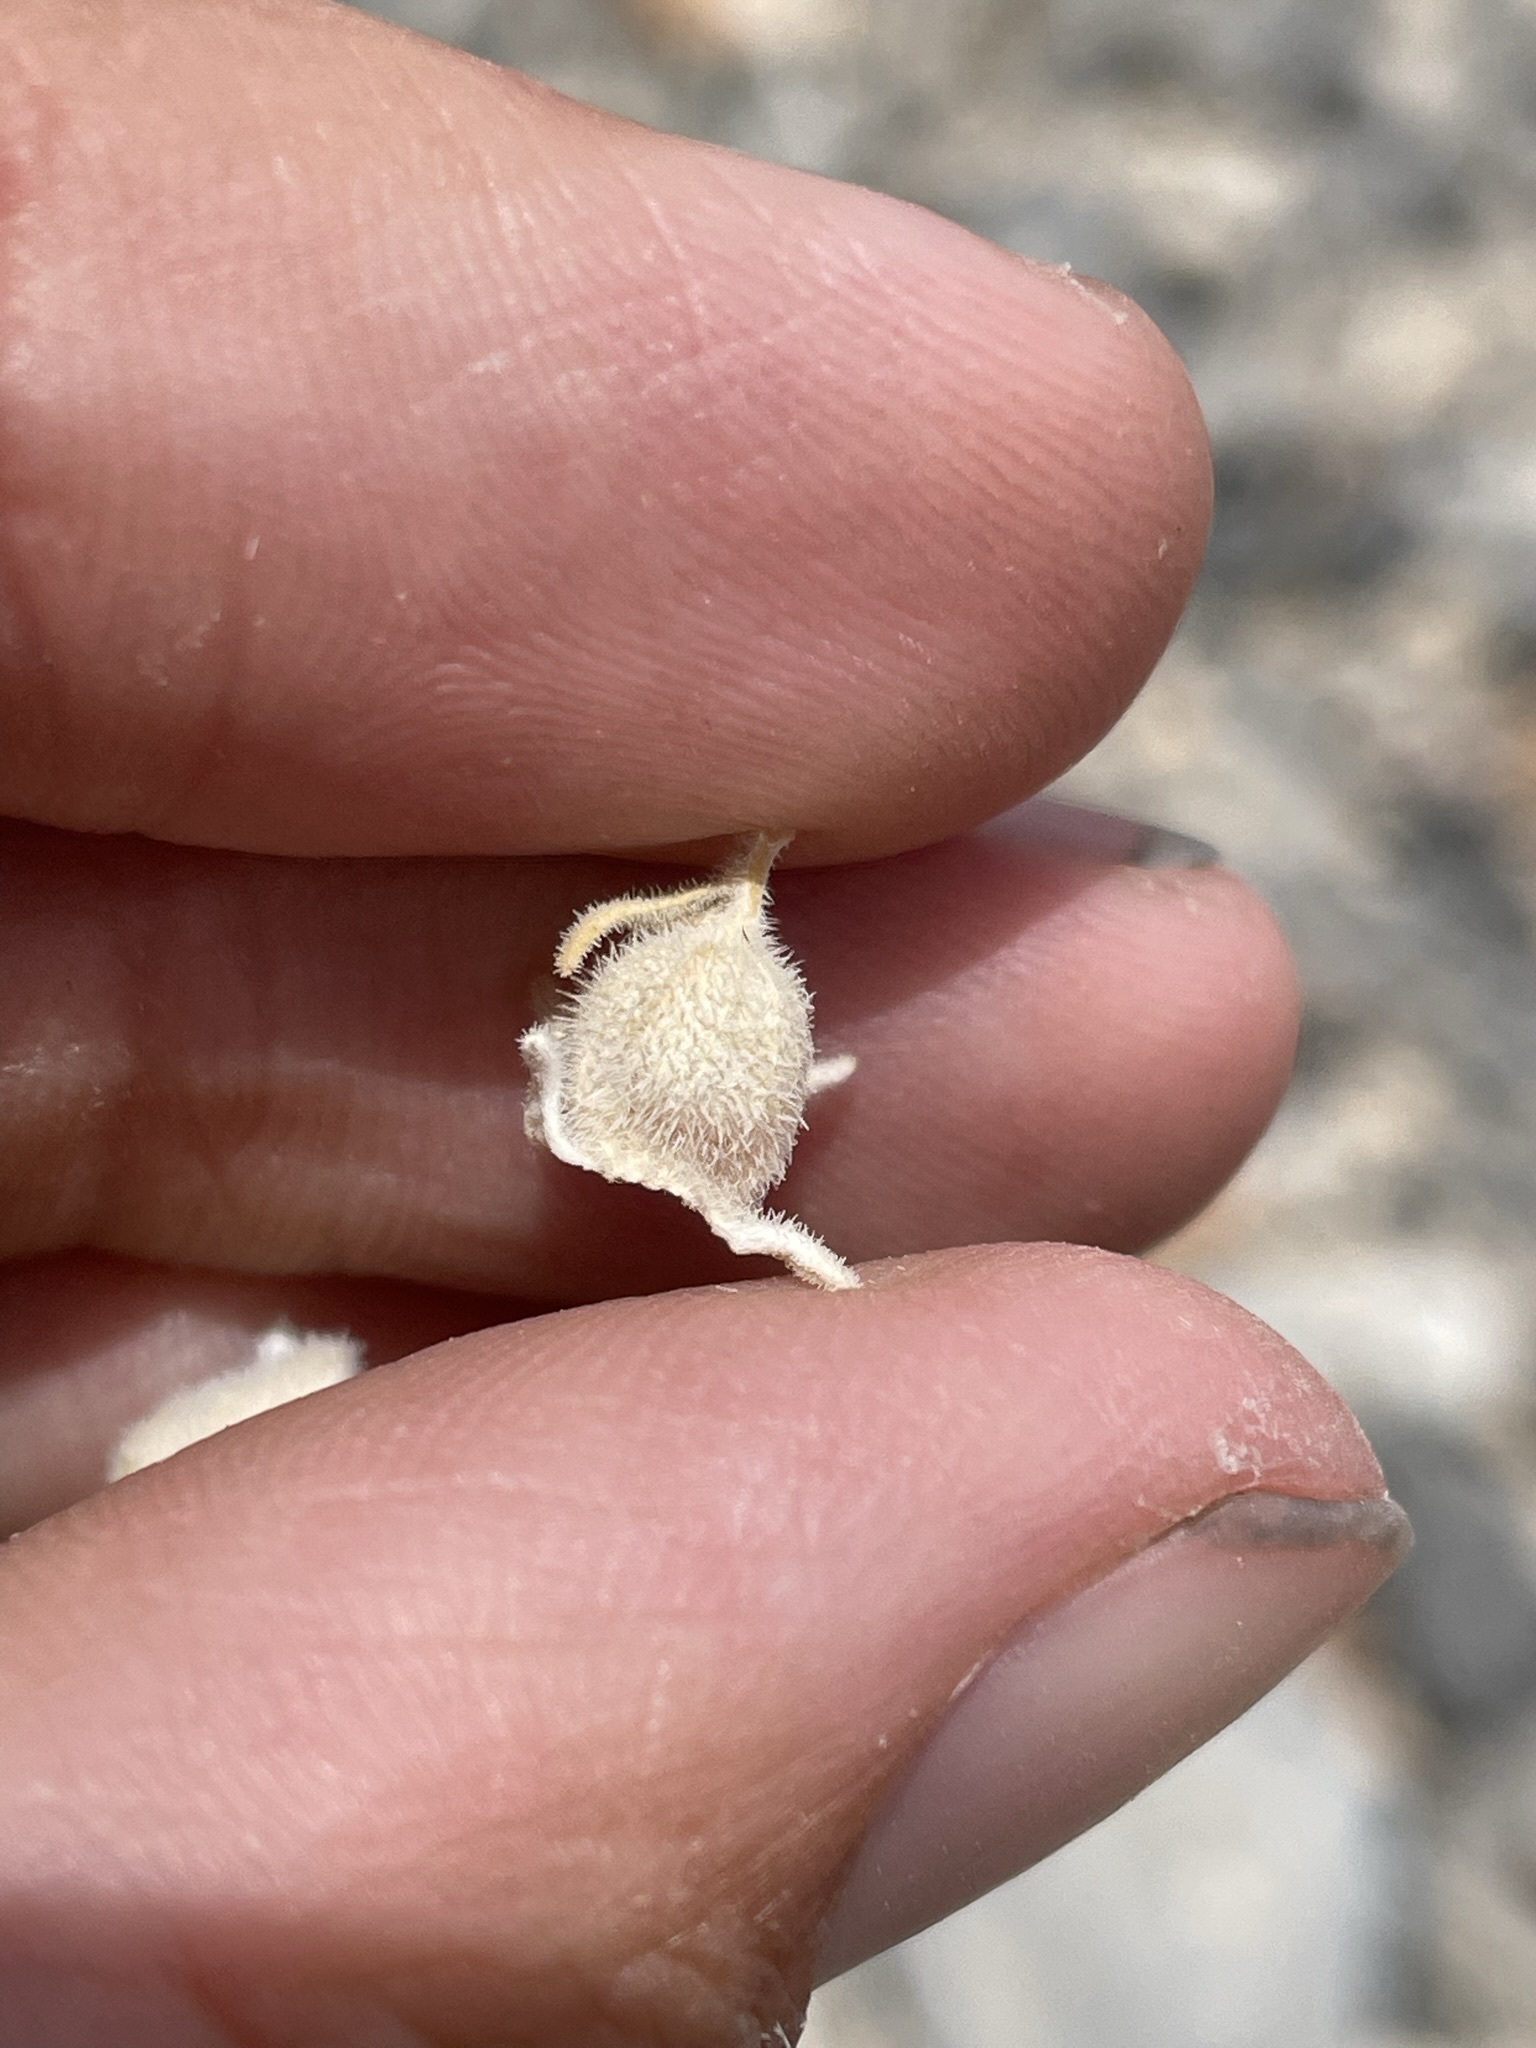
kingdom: Plantae
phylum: Tracheophyta
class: Magnoliopsida
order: Cornales
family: Loasaceae
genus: Mentzelia
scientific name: Mentzelia oreophila
